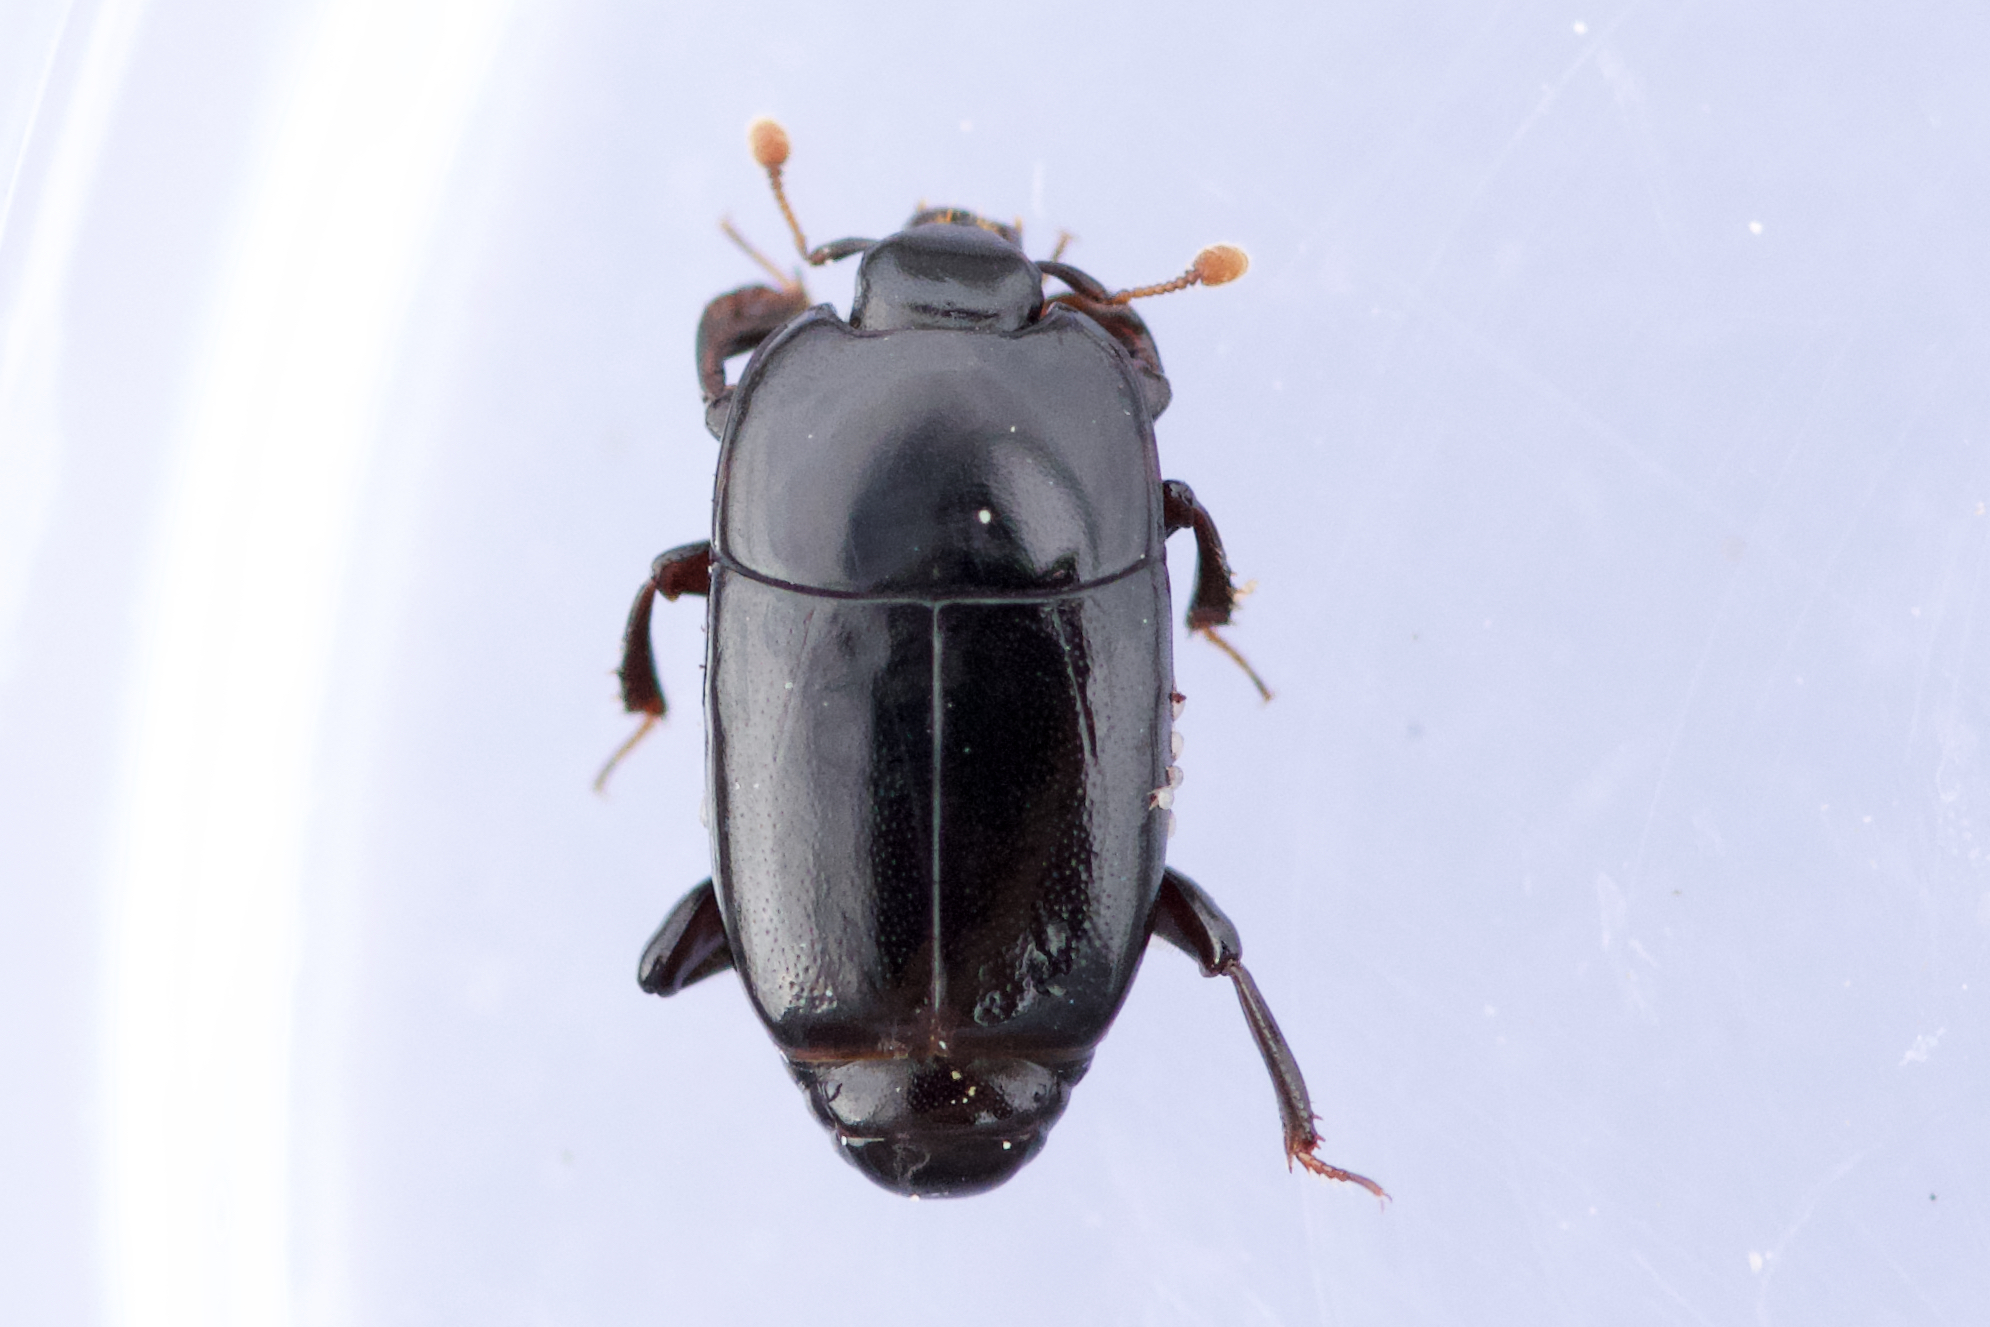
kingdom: Animalia
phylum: Arthropoda
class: Insecta
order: Coleoptera
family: Histeridae
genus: Platylomalus
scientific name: Platylomalus aequalis
